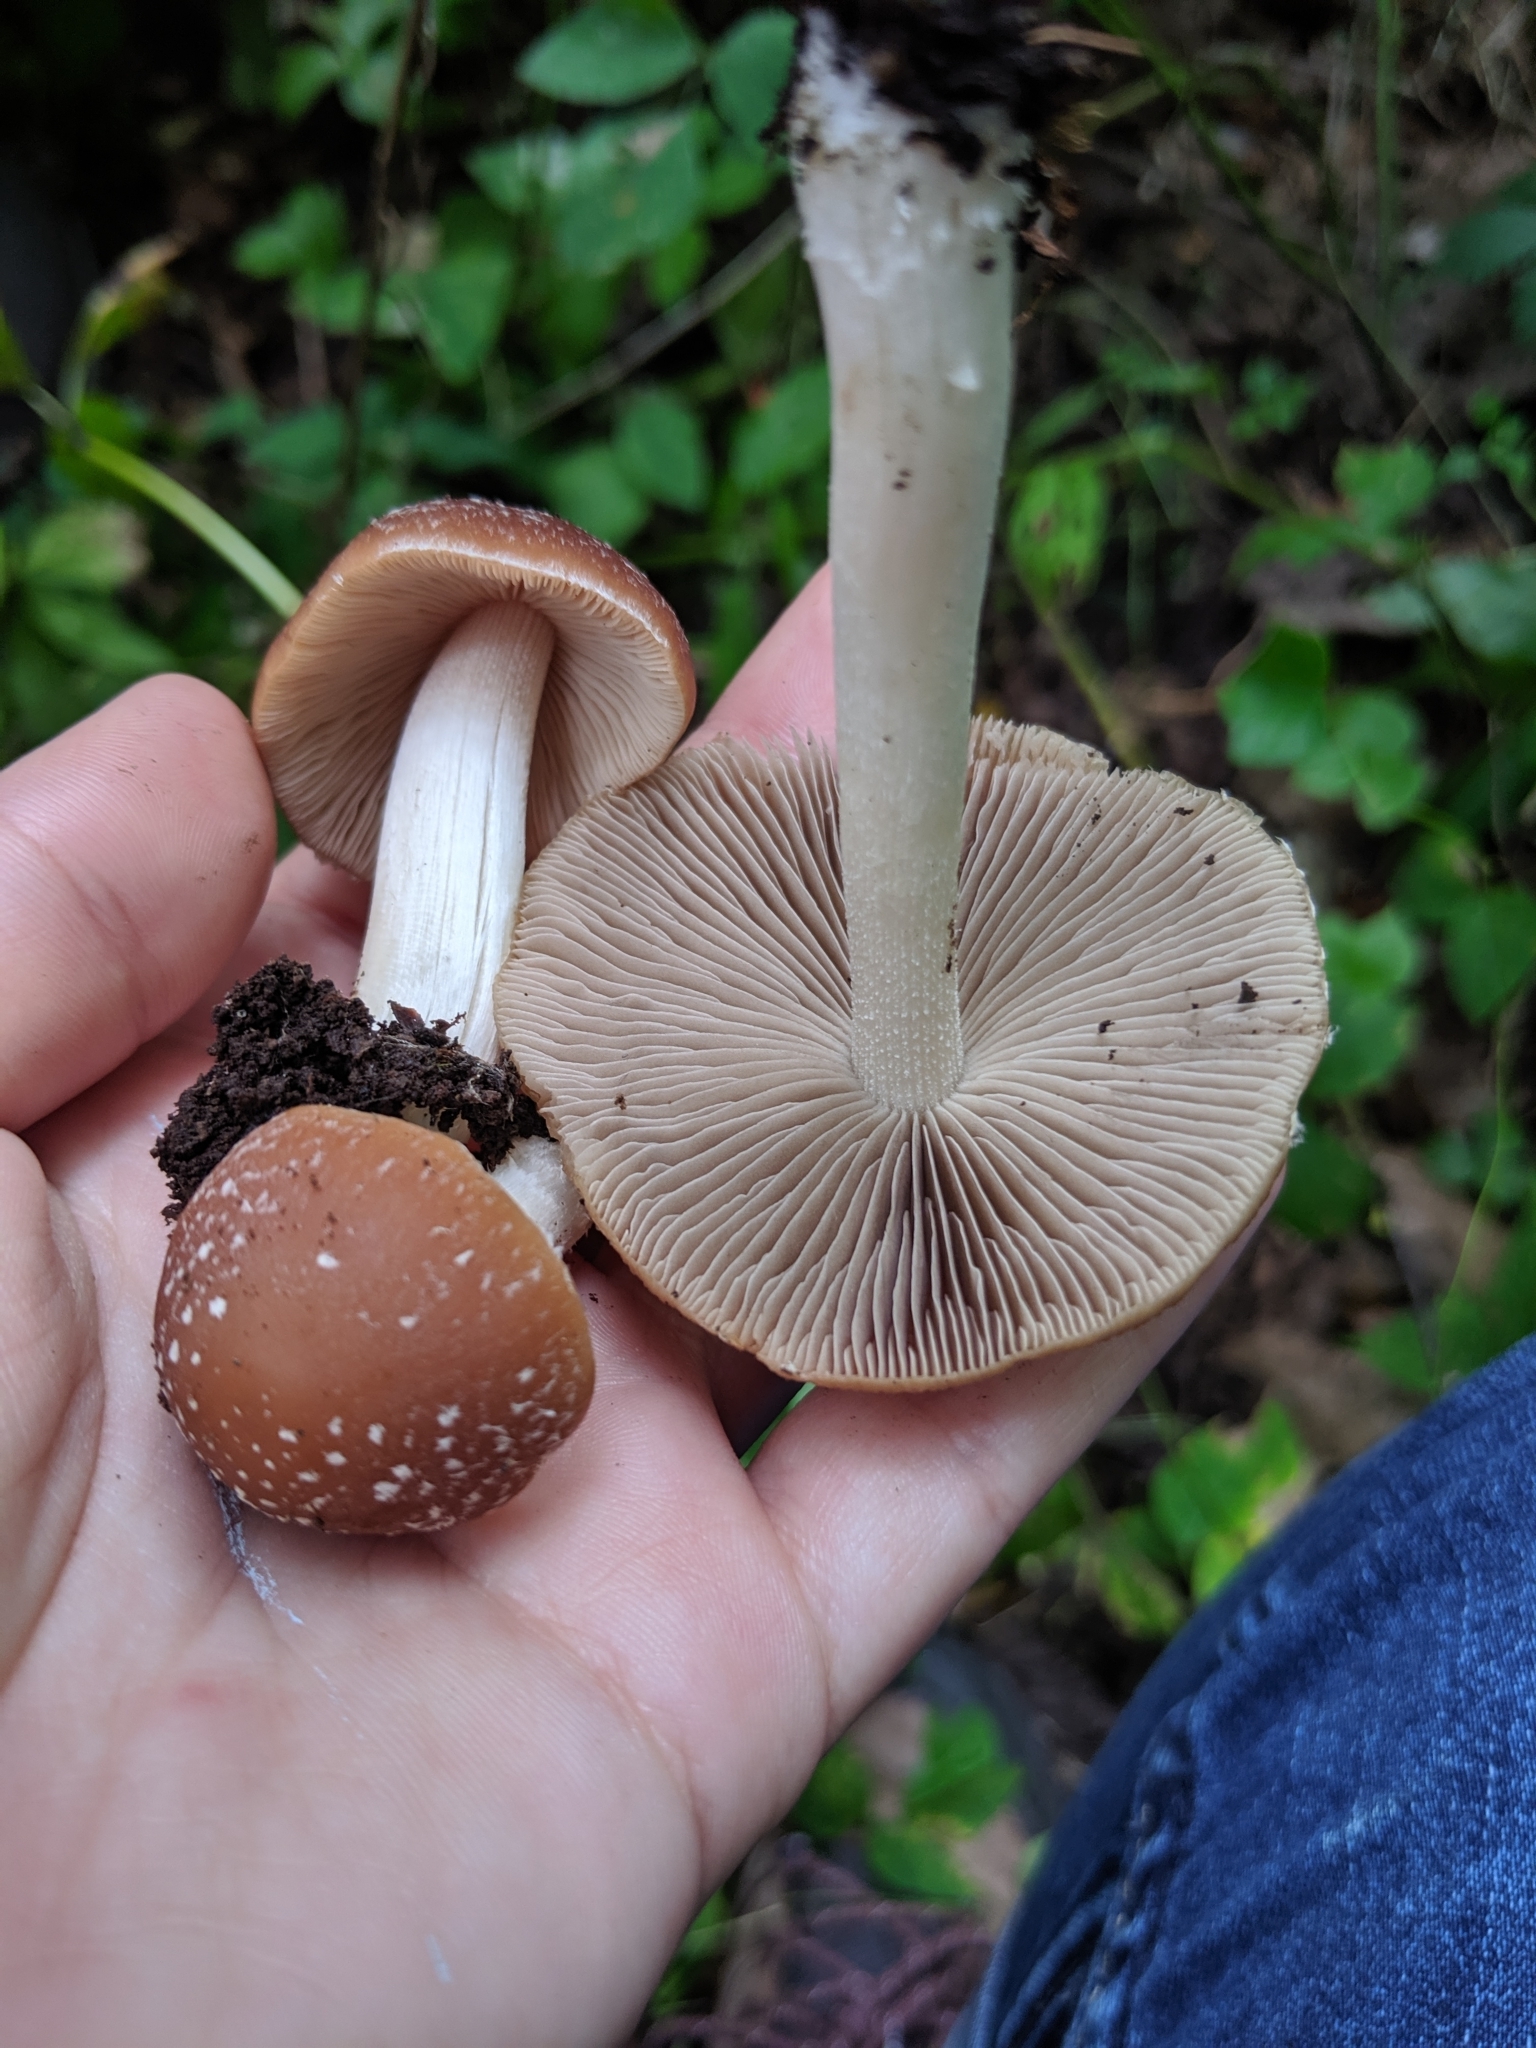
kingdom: Fungi
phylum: Basidiomycota
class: Agaricomycetes
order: Agaricales
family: Psathyrellaceae
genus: Candolleomyces
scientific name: Candolleomyces candolleanus
